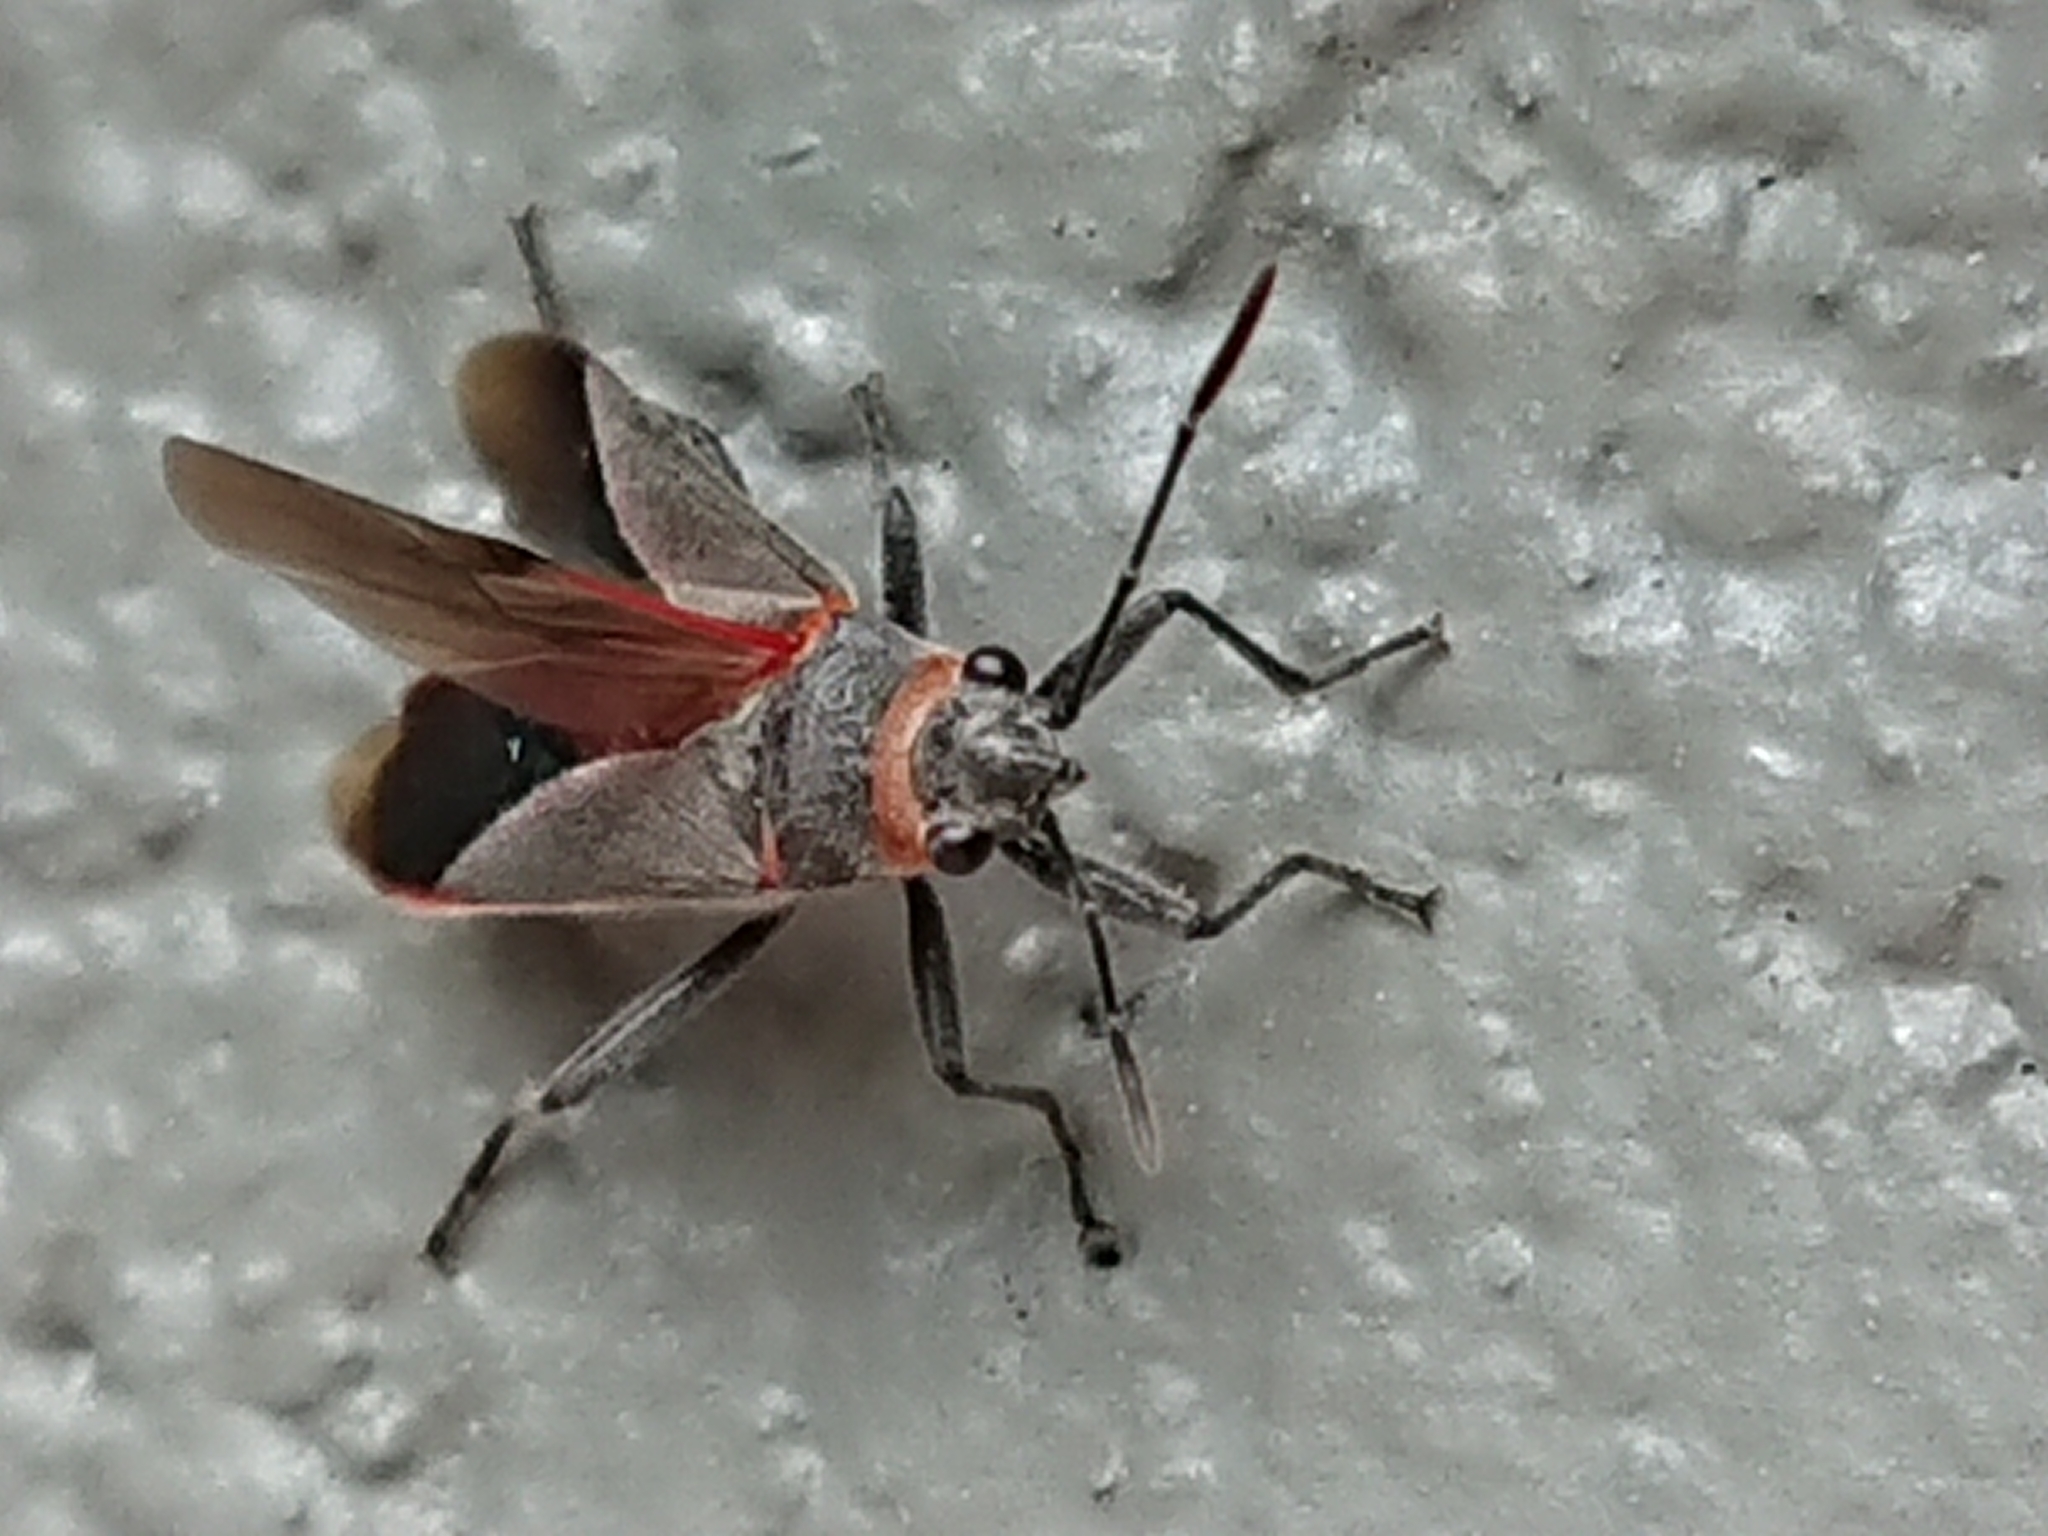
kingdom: Animalia
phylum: Arthropoda
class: Insecta
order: Hemiptera
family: Lygaeidae
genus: Arocatus
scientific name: Arocatus rusticus
